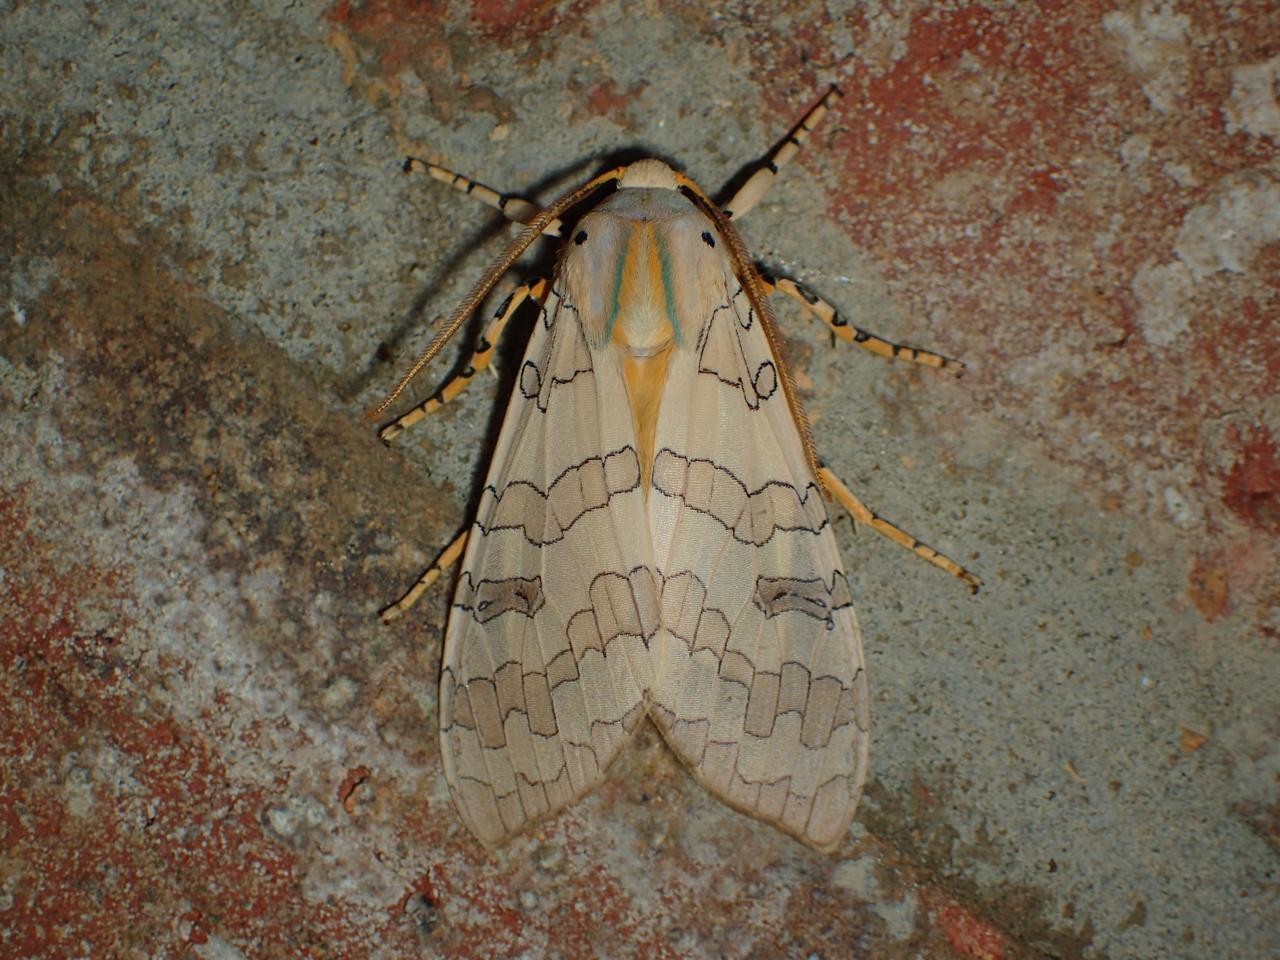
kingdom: Animalia
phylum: Arthropoda
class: Insecta
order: Lepidoptera
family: Erebidae
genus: Halysidota
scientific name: Halysidota
